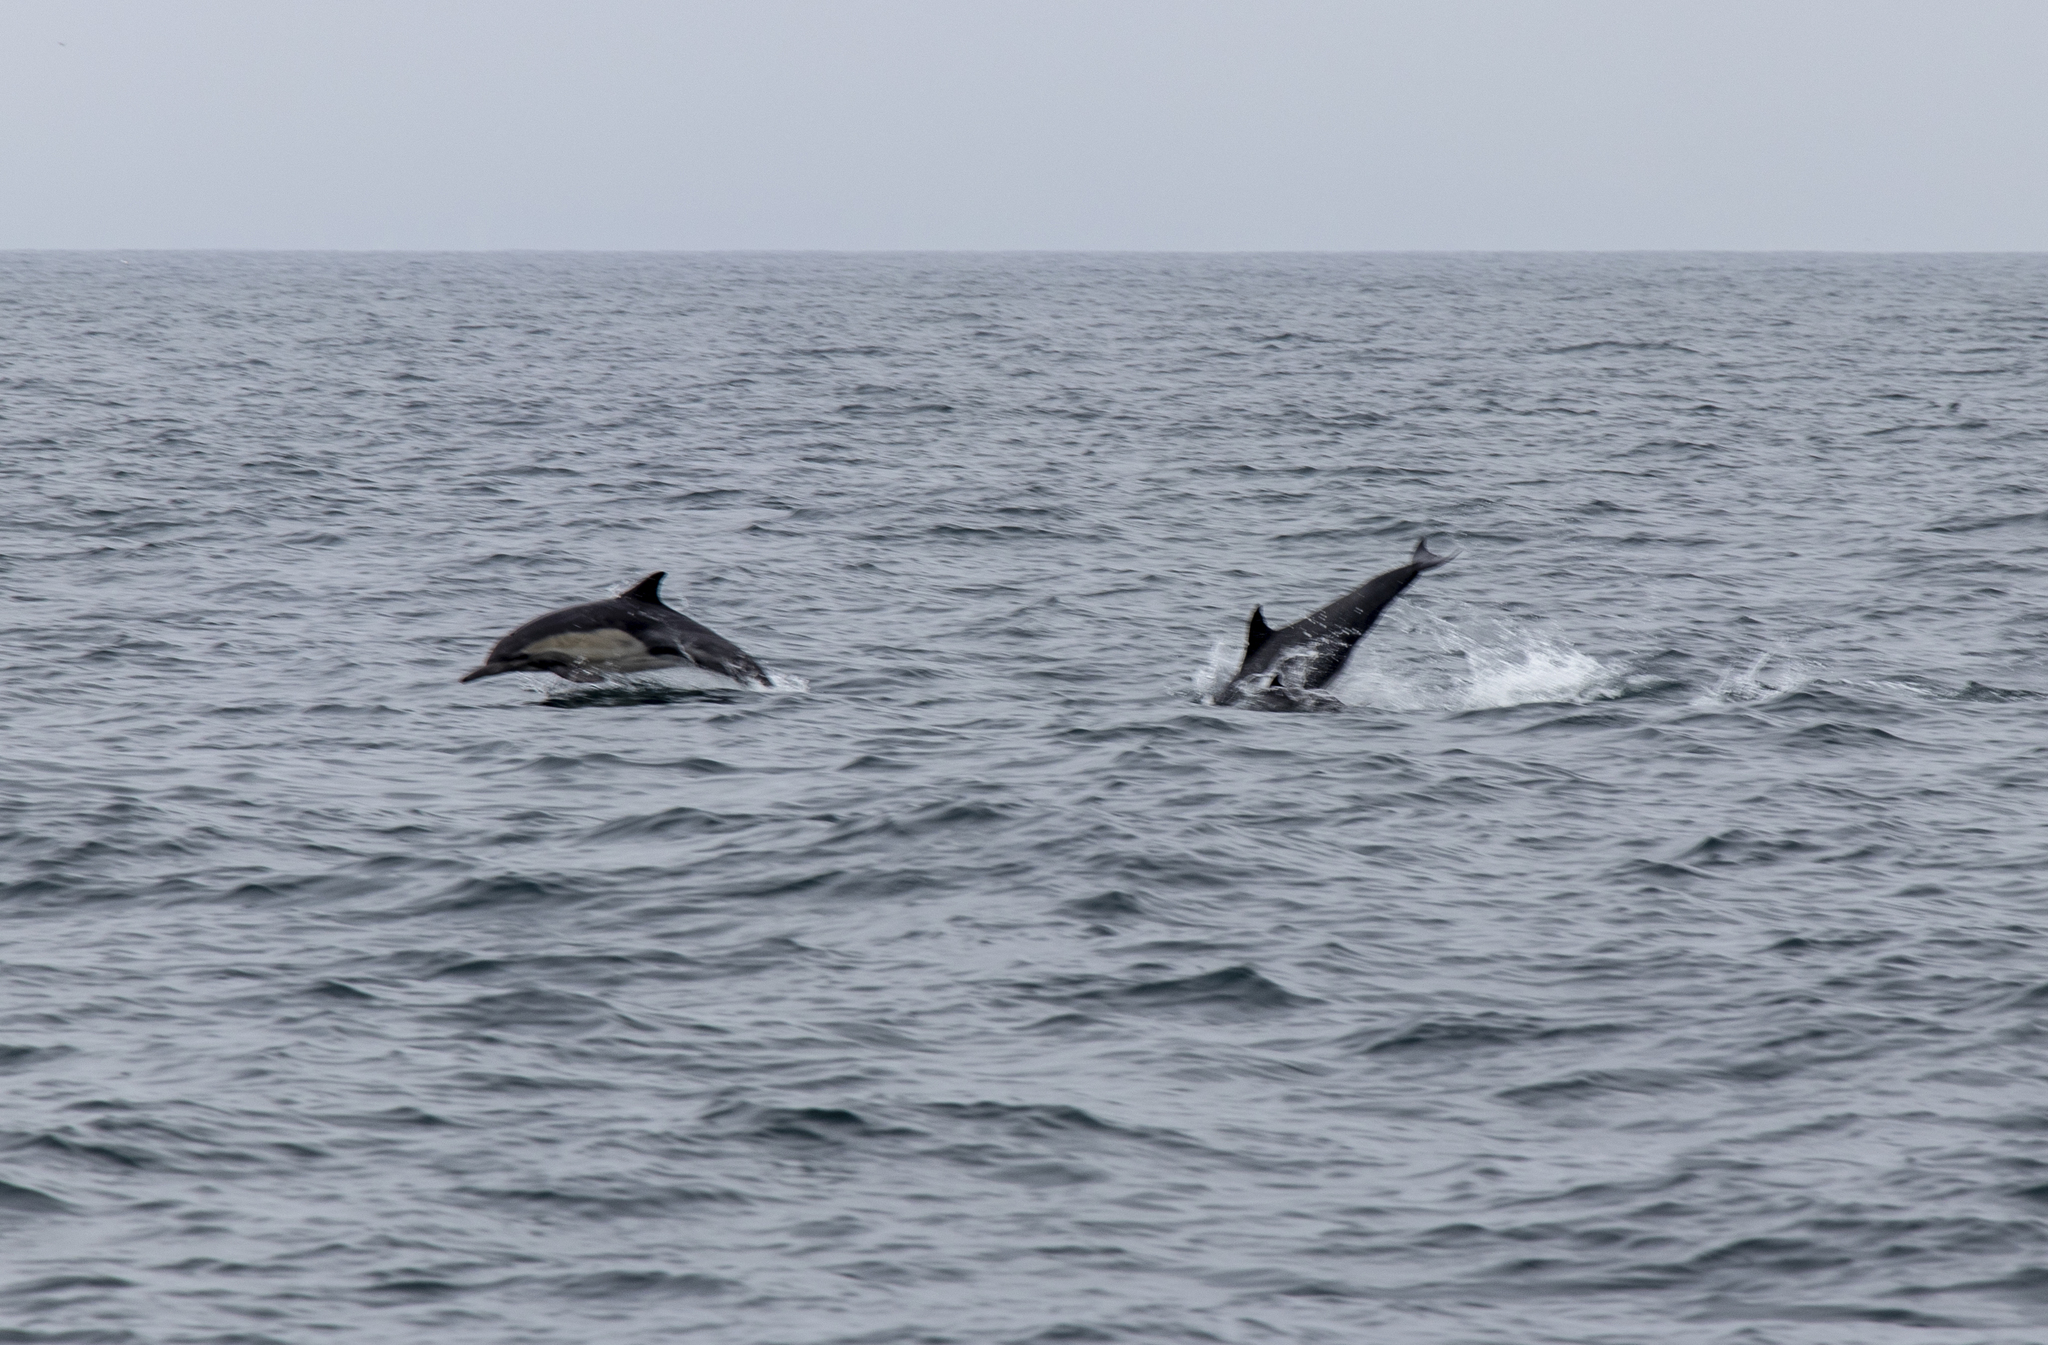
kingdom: Animalia
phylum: Chordata
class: Mammalia
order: Cetacea
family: Delphinidae
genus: Delphinus
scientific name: Delphinus delphis
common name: Common dolphin
